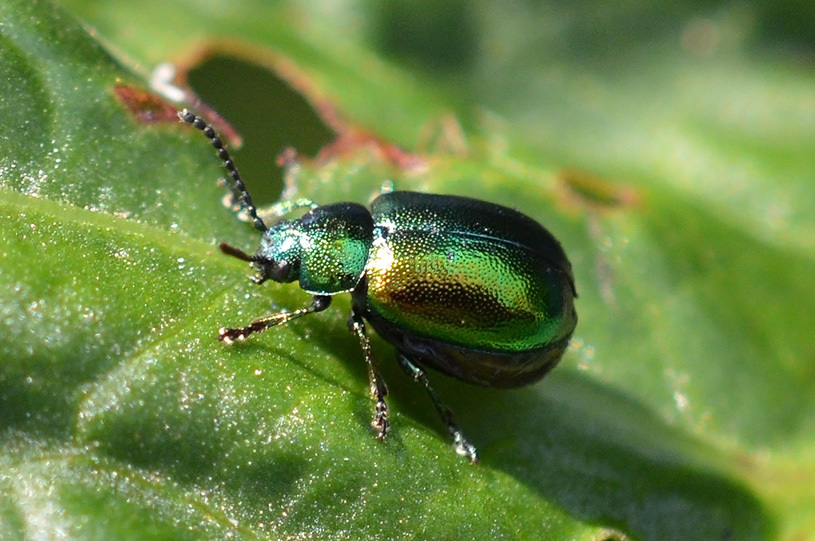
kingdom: Animalia
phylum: Arthropoda
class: Insecta
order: Coleoptera
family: Chrysomelidae
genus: Gastrophysa
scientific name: Gastrophysa viridula
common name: Green dock beetle
